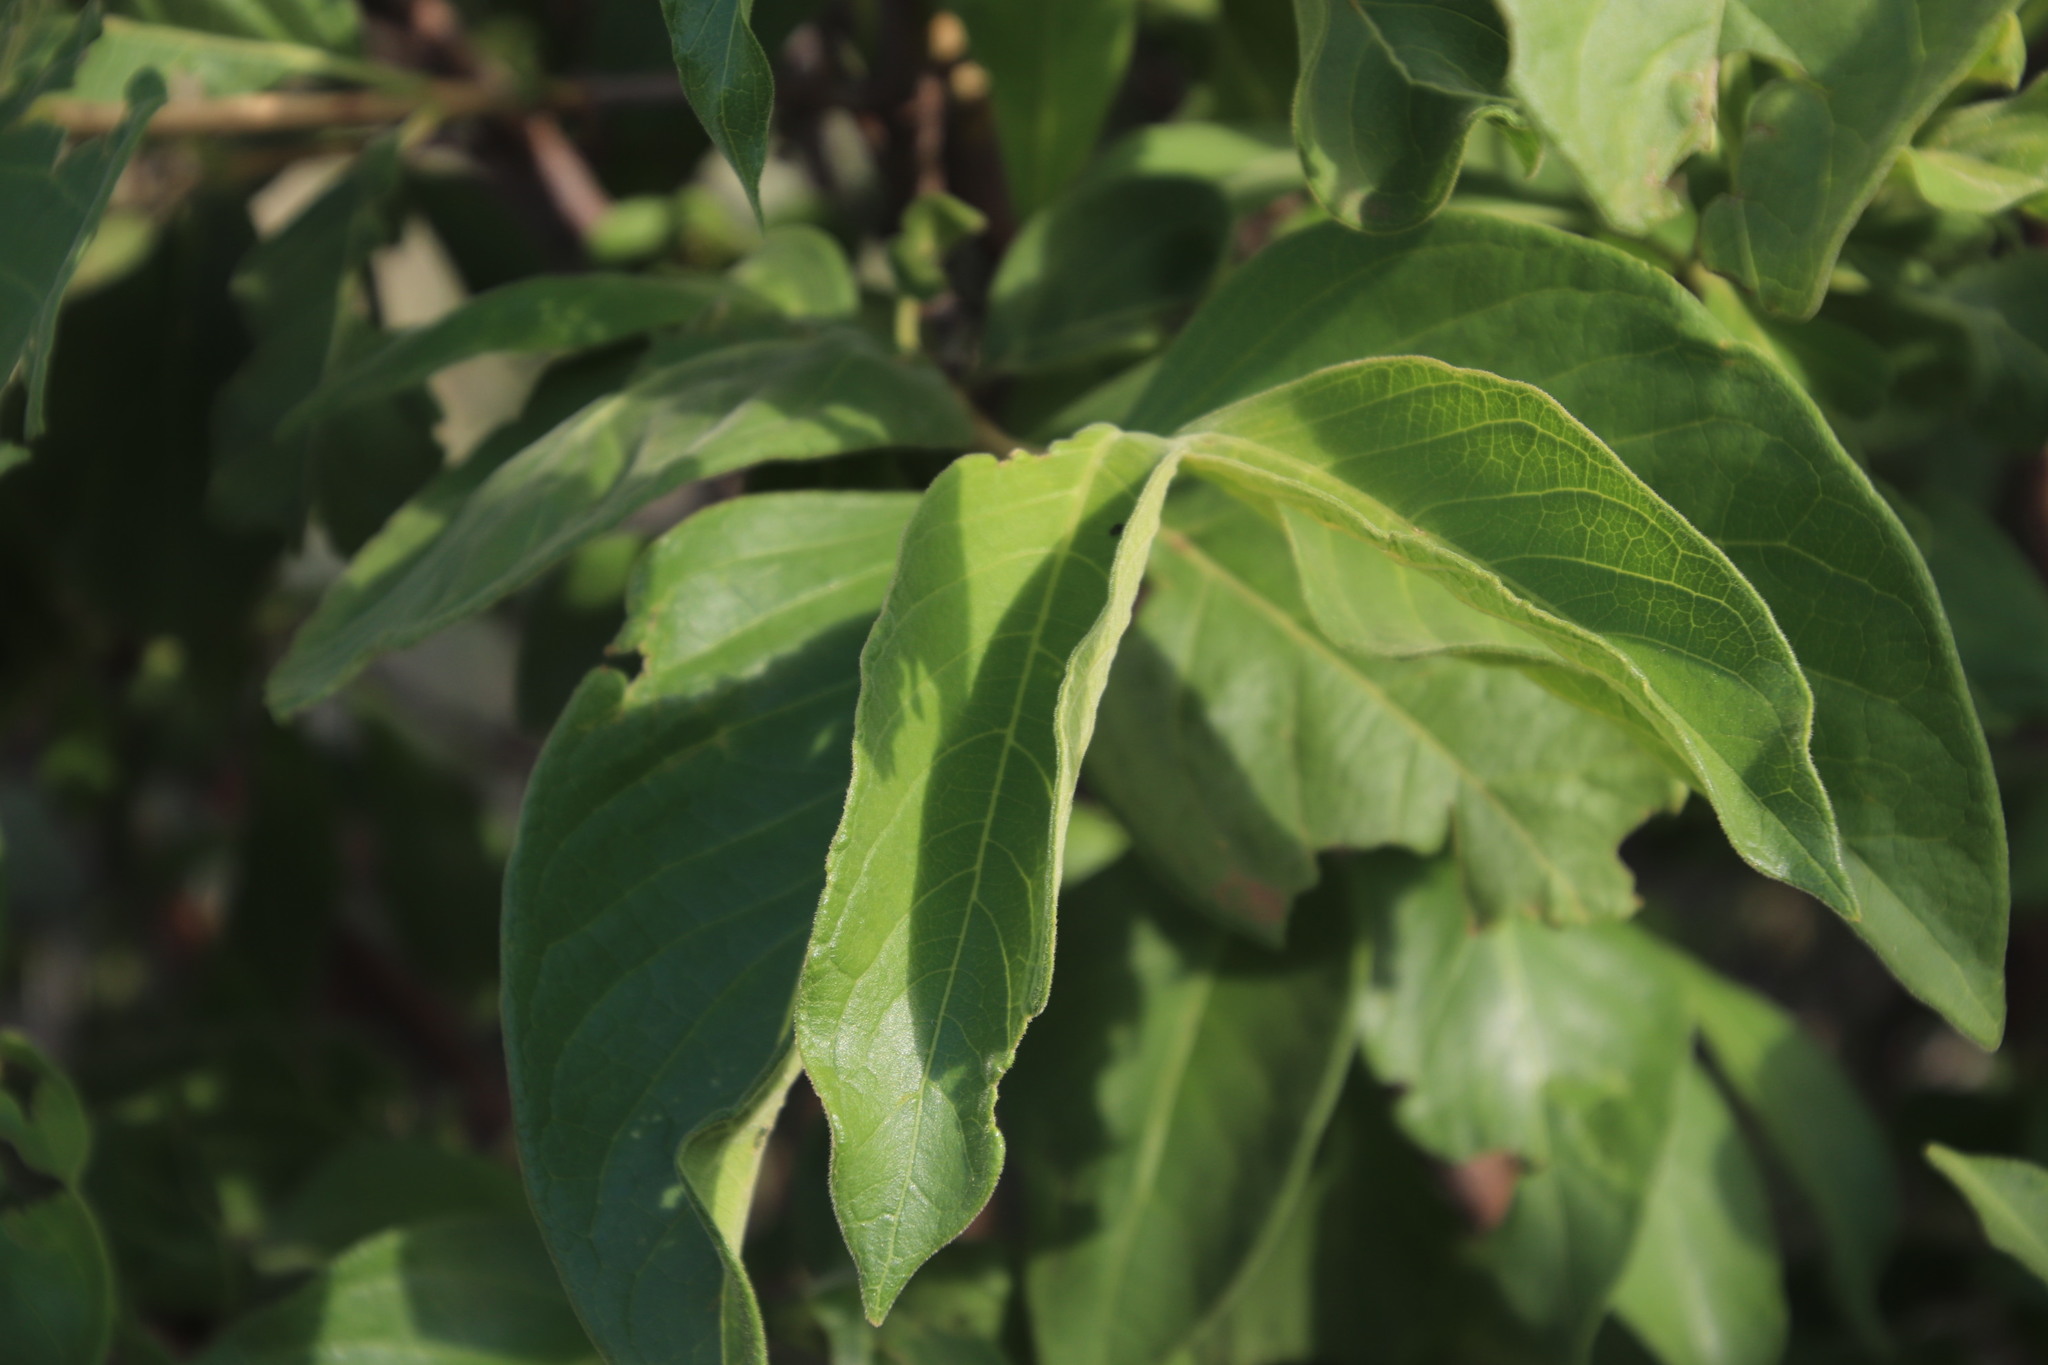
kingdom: Plantae
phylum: Tracheophyta
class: Magnoliopsida
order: Gentianales
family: Rubiaceae
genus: Vangueria
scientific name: Vangueria infausta
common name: Medlar
